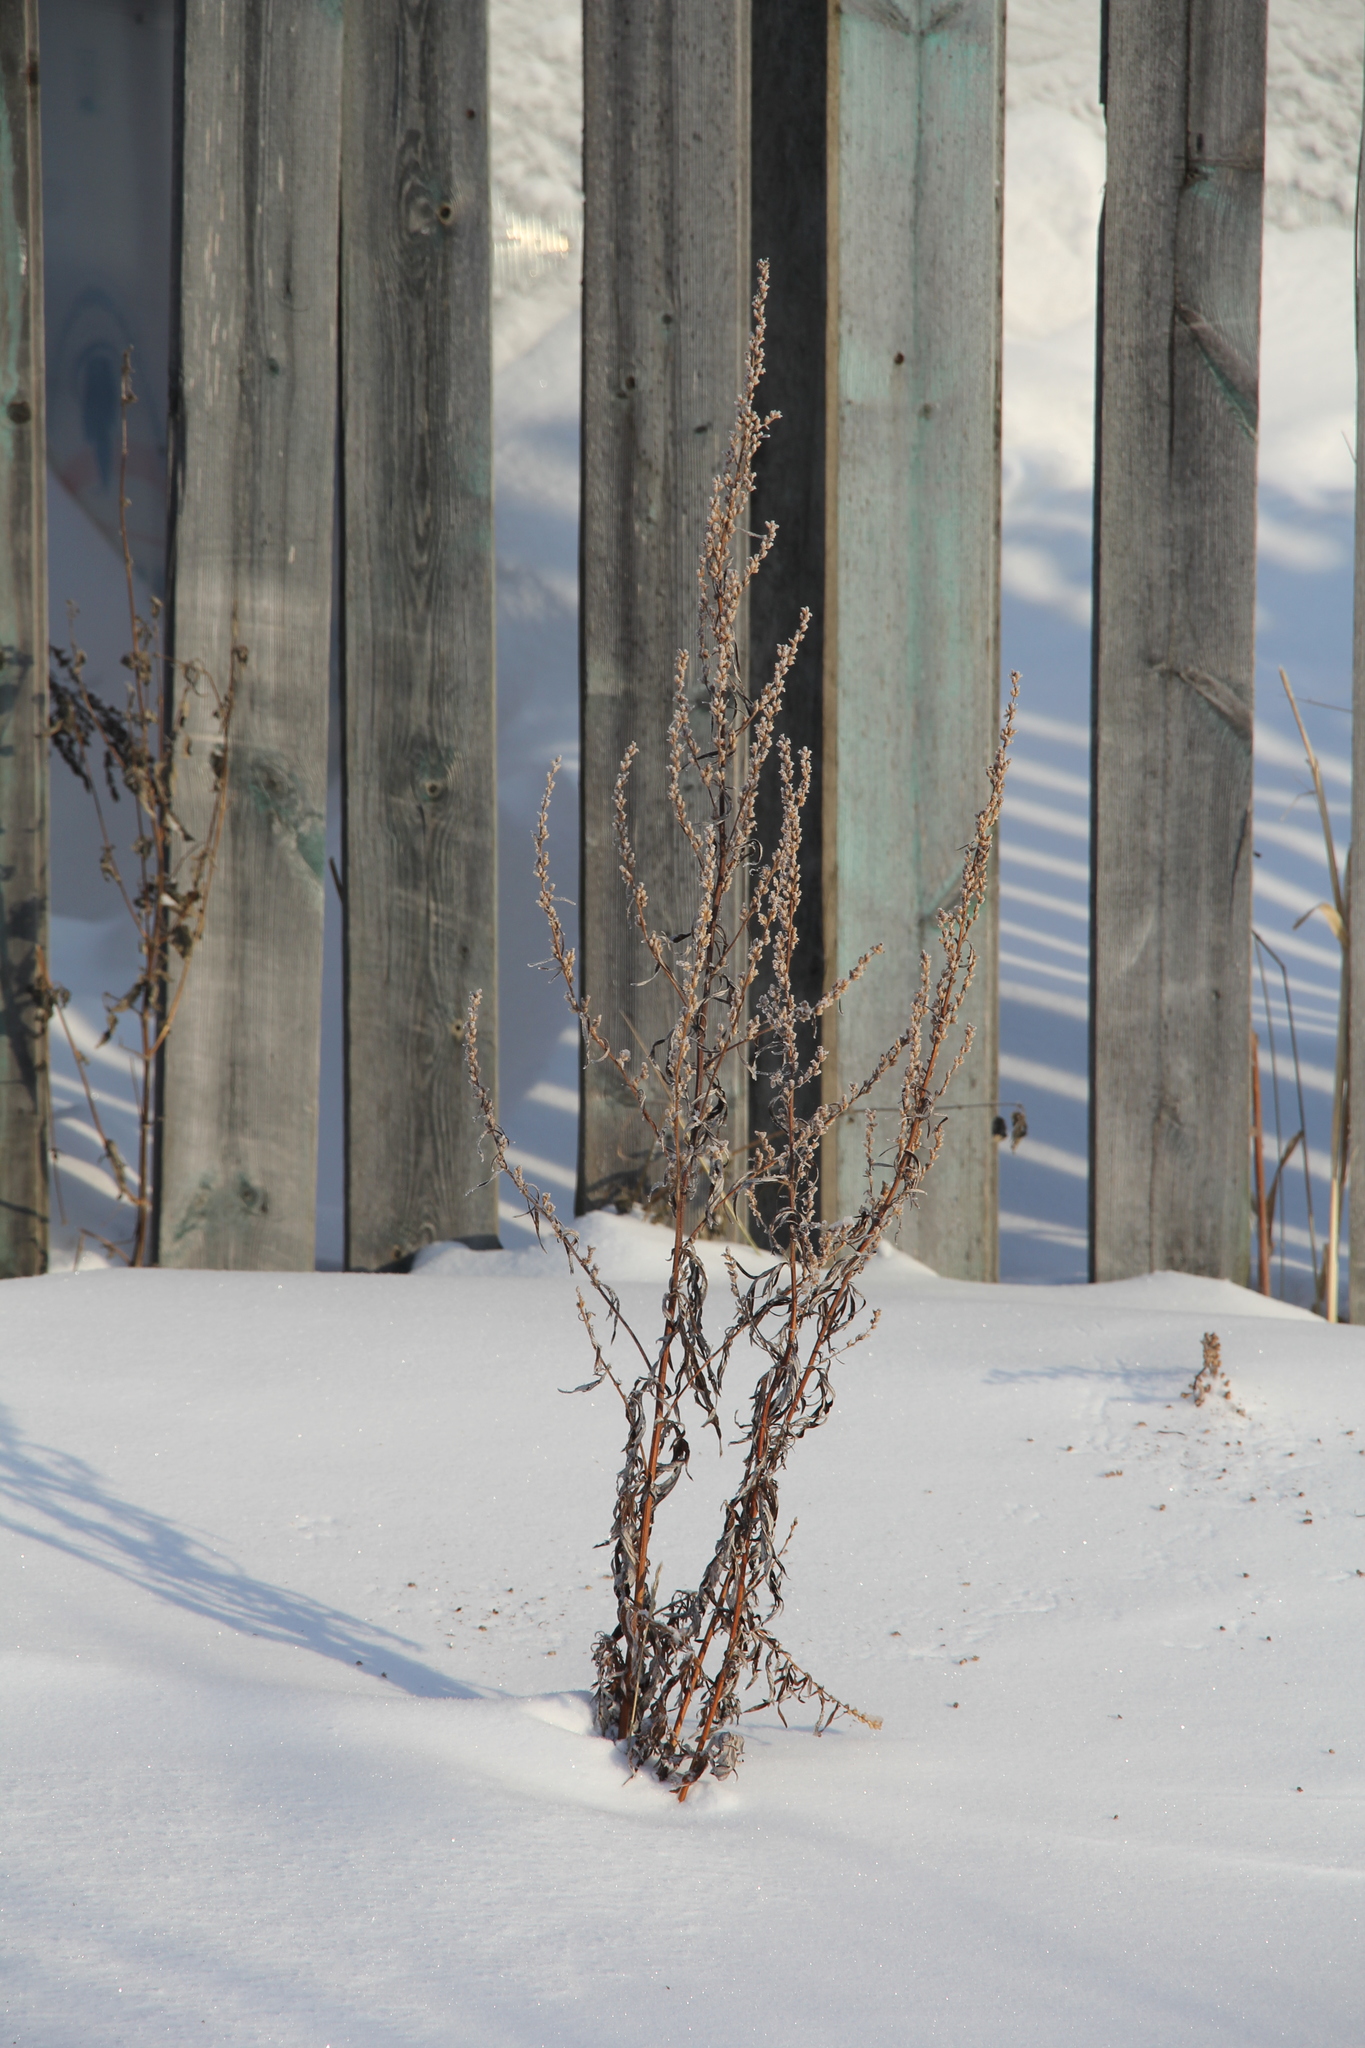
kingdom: Plantae
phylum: Tracheophyta
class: Magnoliopsida
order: Asterales
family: Asteraceae
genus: Artemisia
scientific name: Artemisia vulgaris
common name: Mugwort
